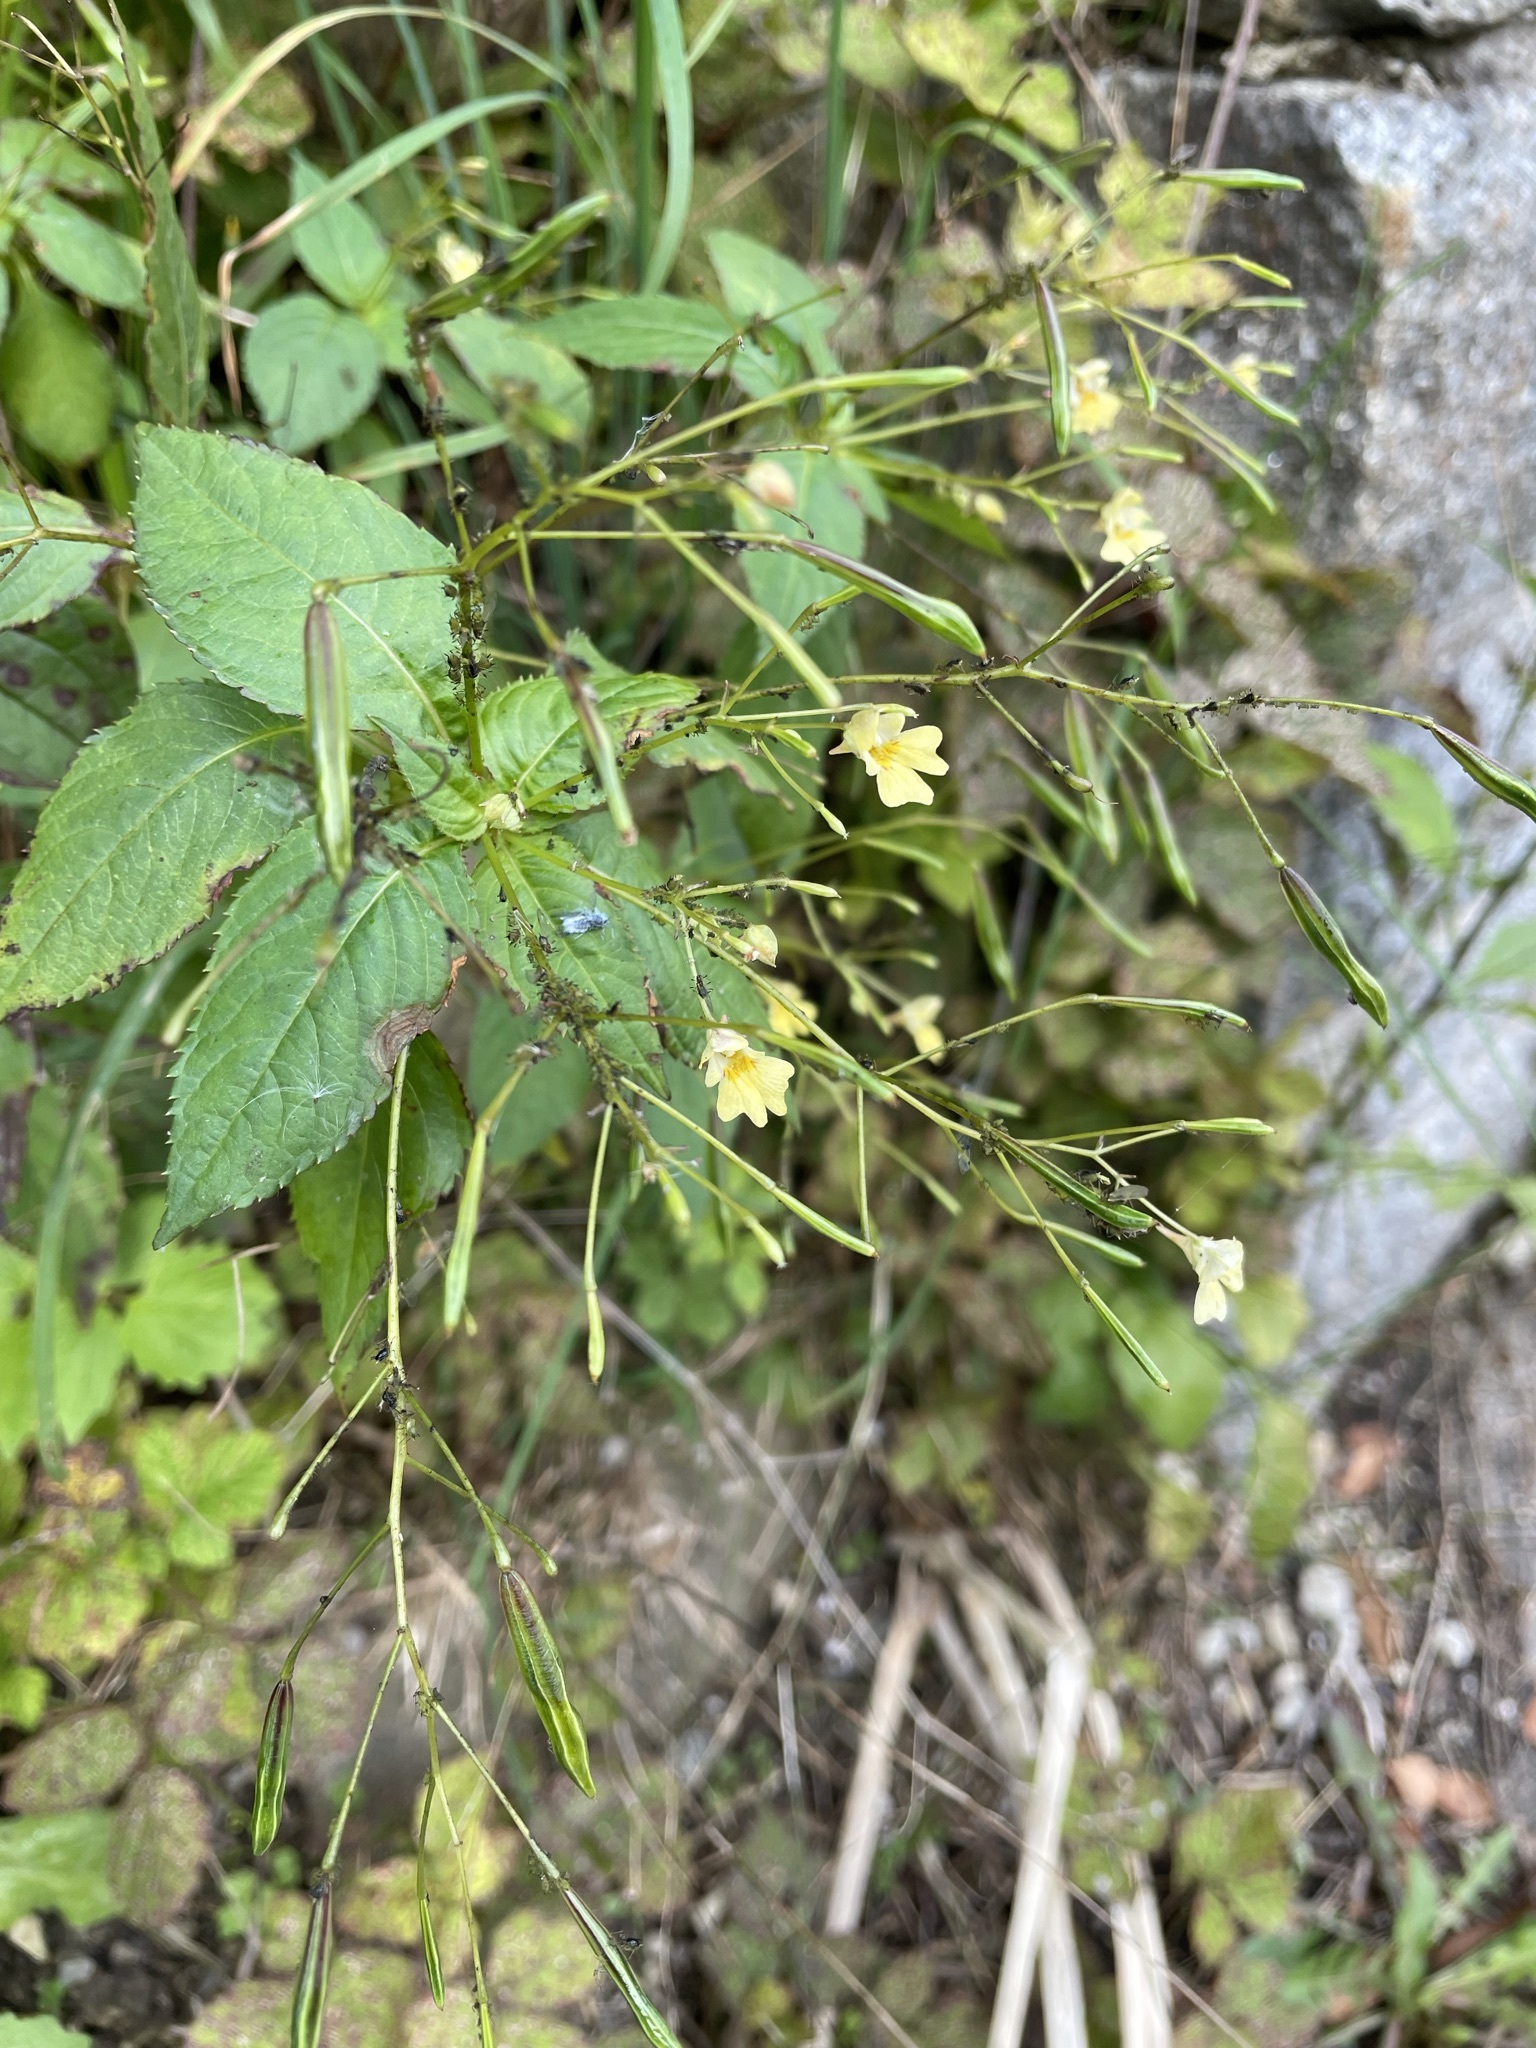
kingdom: Plantae
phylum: Tracheophyta
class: Magnoliopsida
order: Ericales
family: Balsaminaceae
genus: Impatiens
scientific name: Impatiens parviflora
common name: Small balsam
